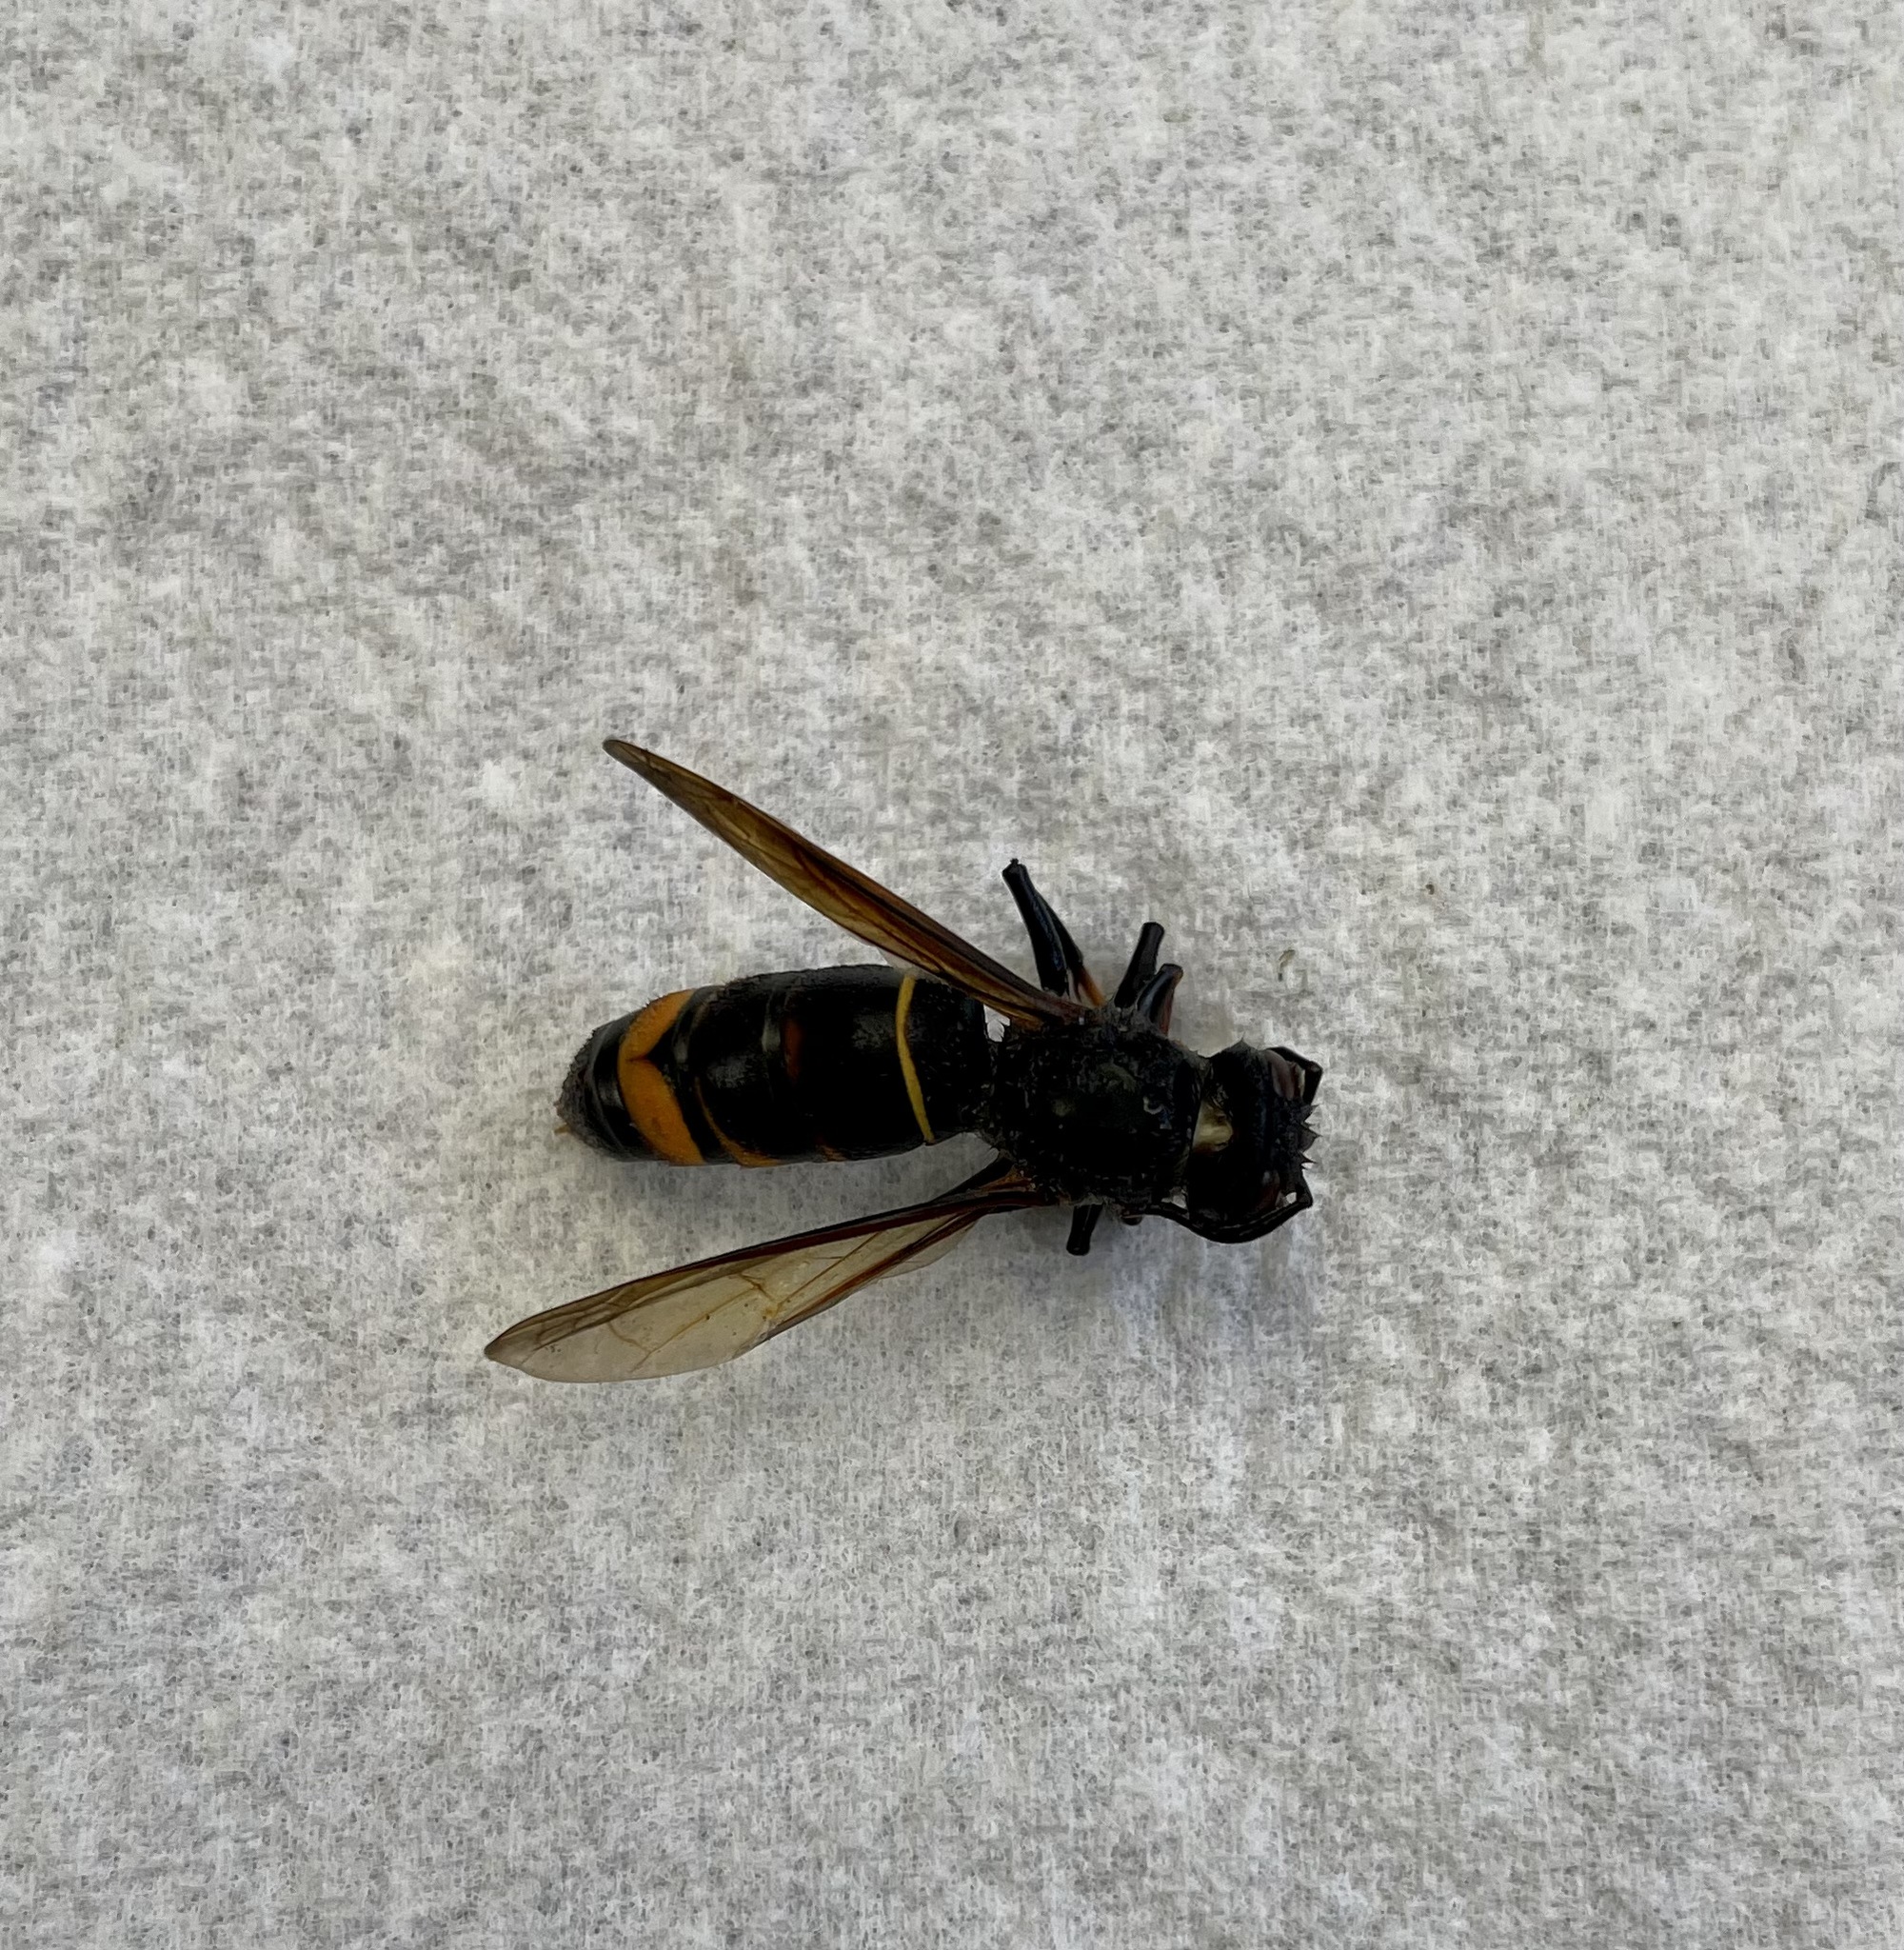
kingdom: Animalia
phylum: Arthropoda
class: Insecta
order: Hymenoptera
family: Vespidae
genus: Vespa
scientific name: Vespa velutina
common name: Asian hornet
